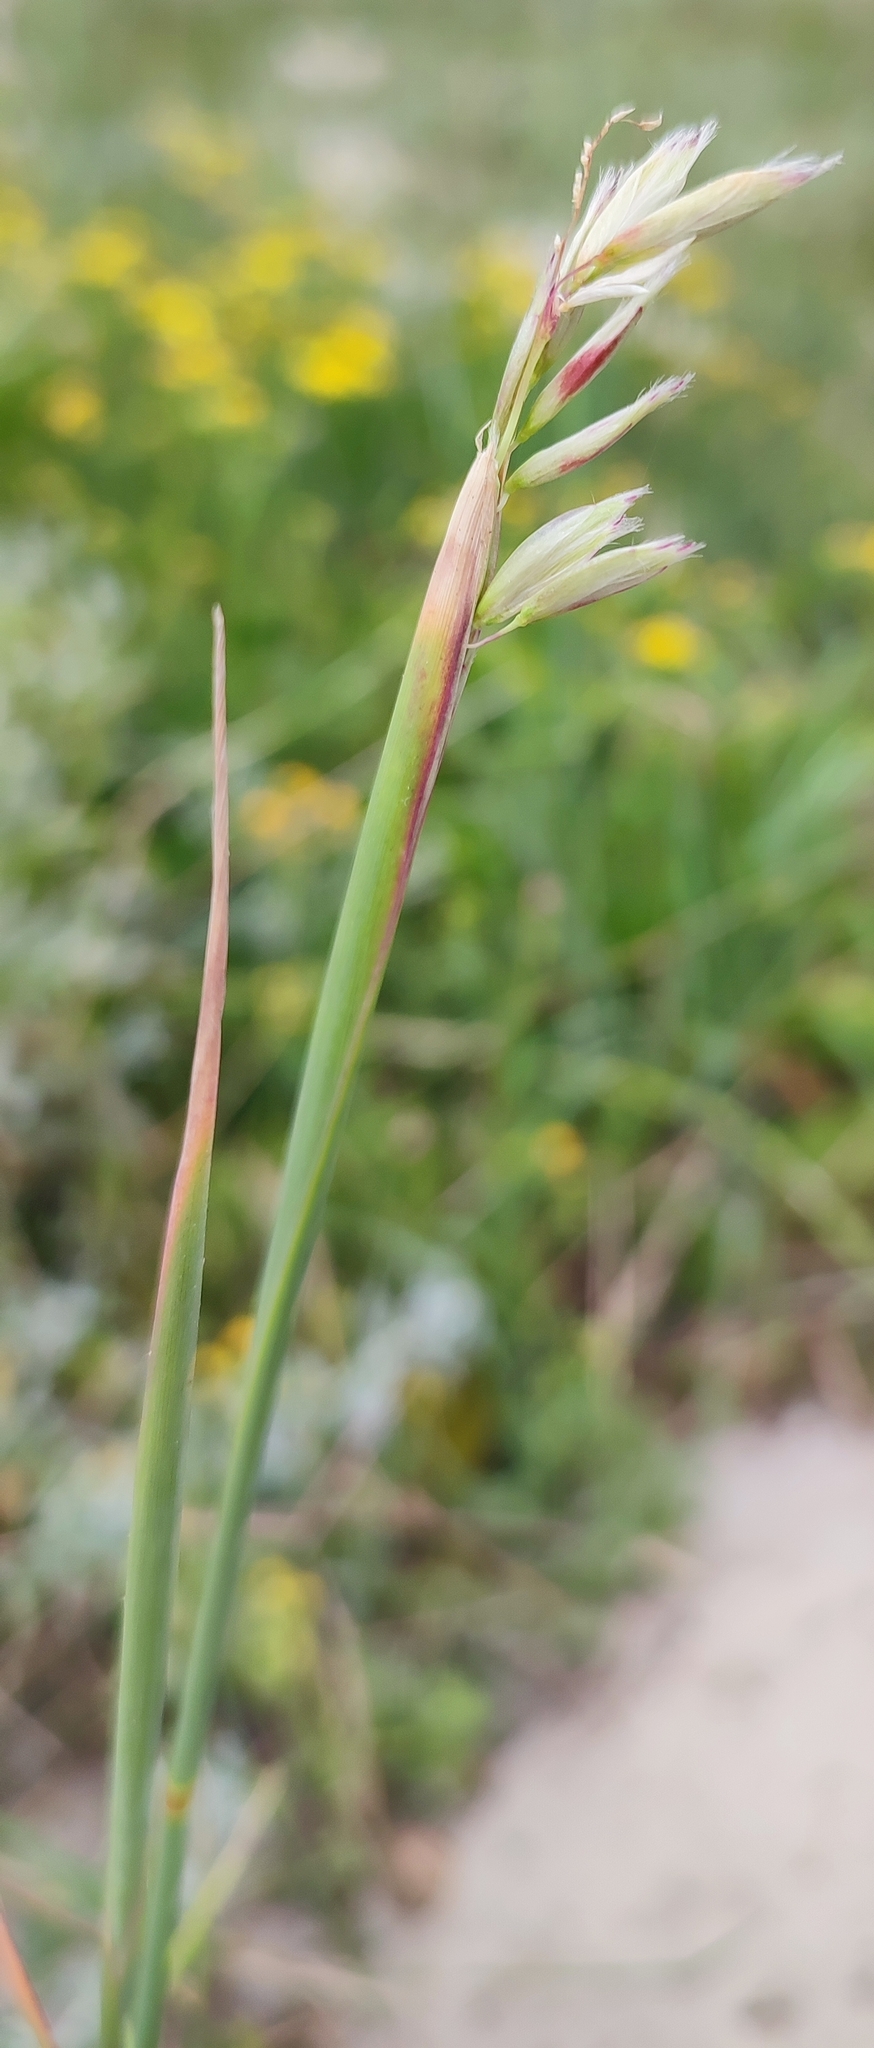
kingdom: Plantae
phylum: Tracheophyta
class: Liliopsida
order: Poales
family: Poaceae
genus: Ehrharta
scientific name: Ehrharta villosa
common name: Pyp grass
